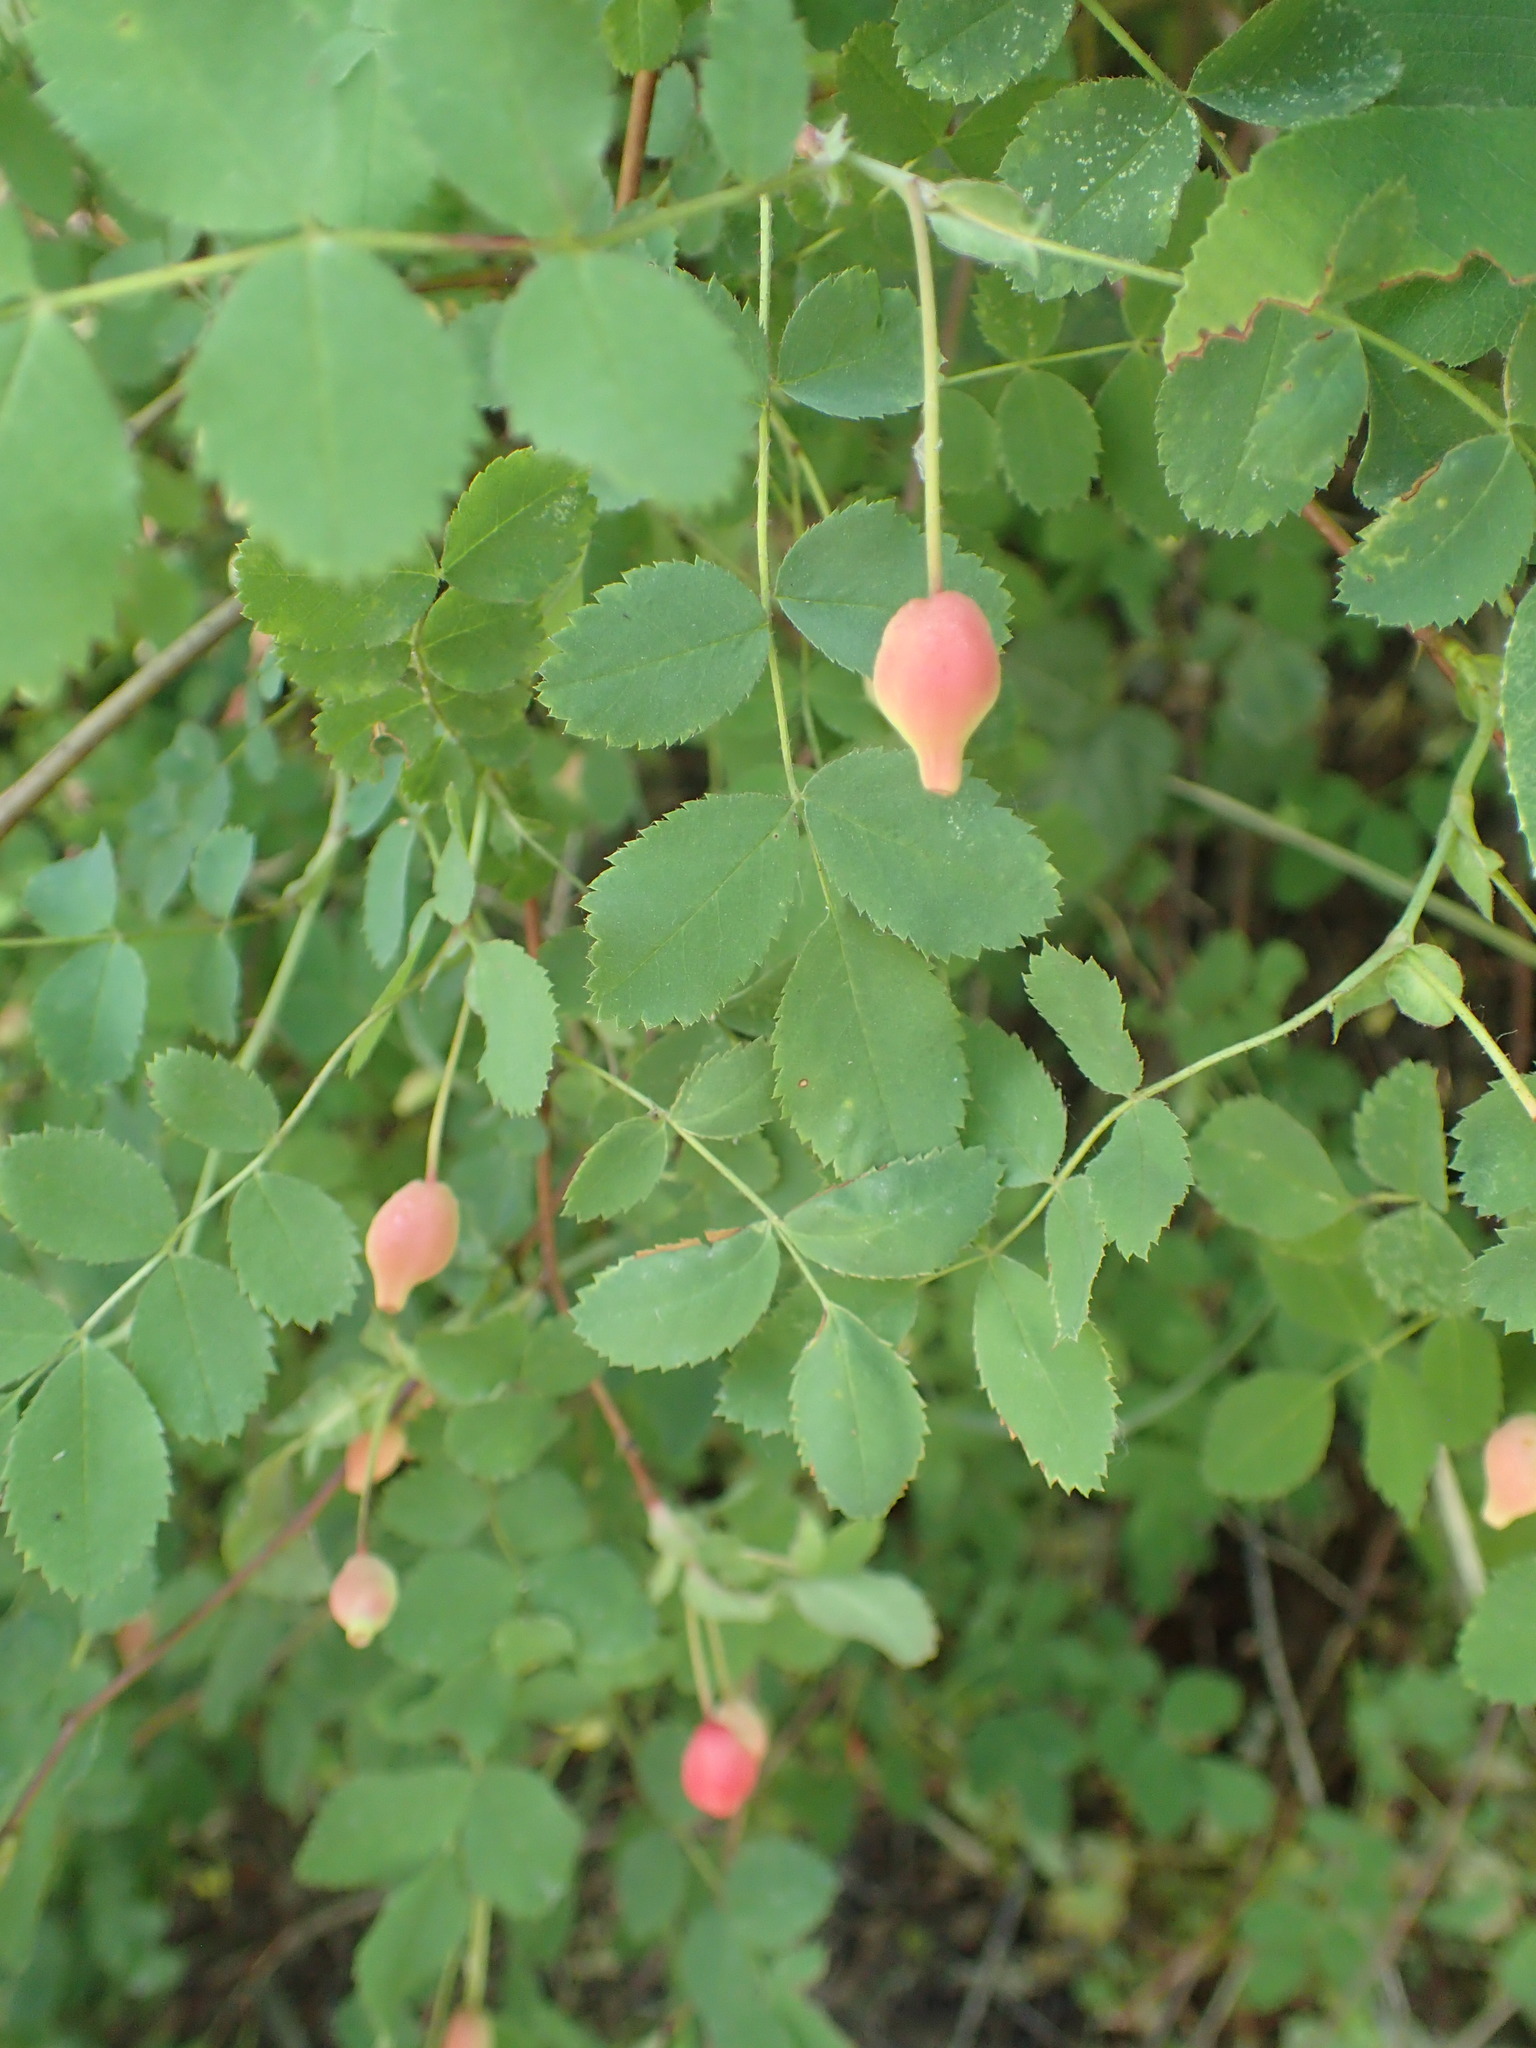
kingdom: Plantae
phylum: Tracheophyta
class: Magnoliopsida
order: Rosales
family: Rosaceae
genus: Rosa
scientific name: Rosa gymnocarpa
